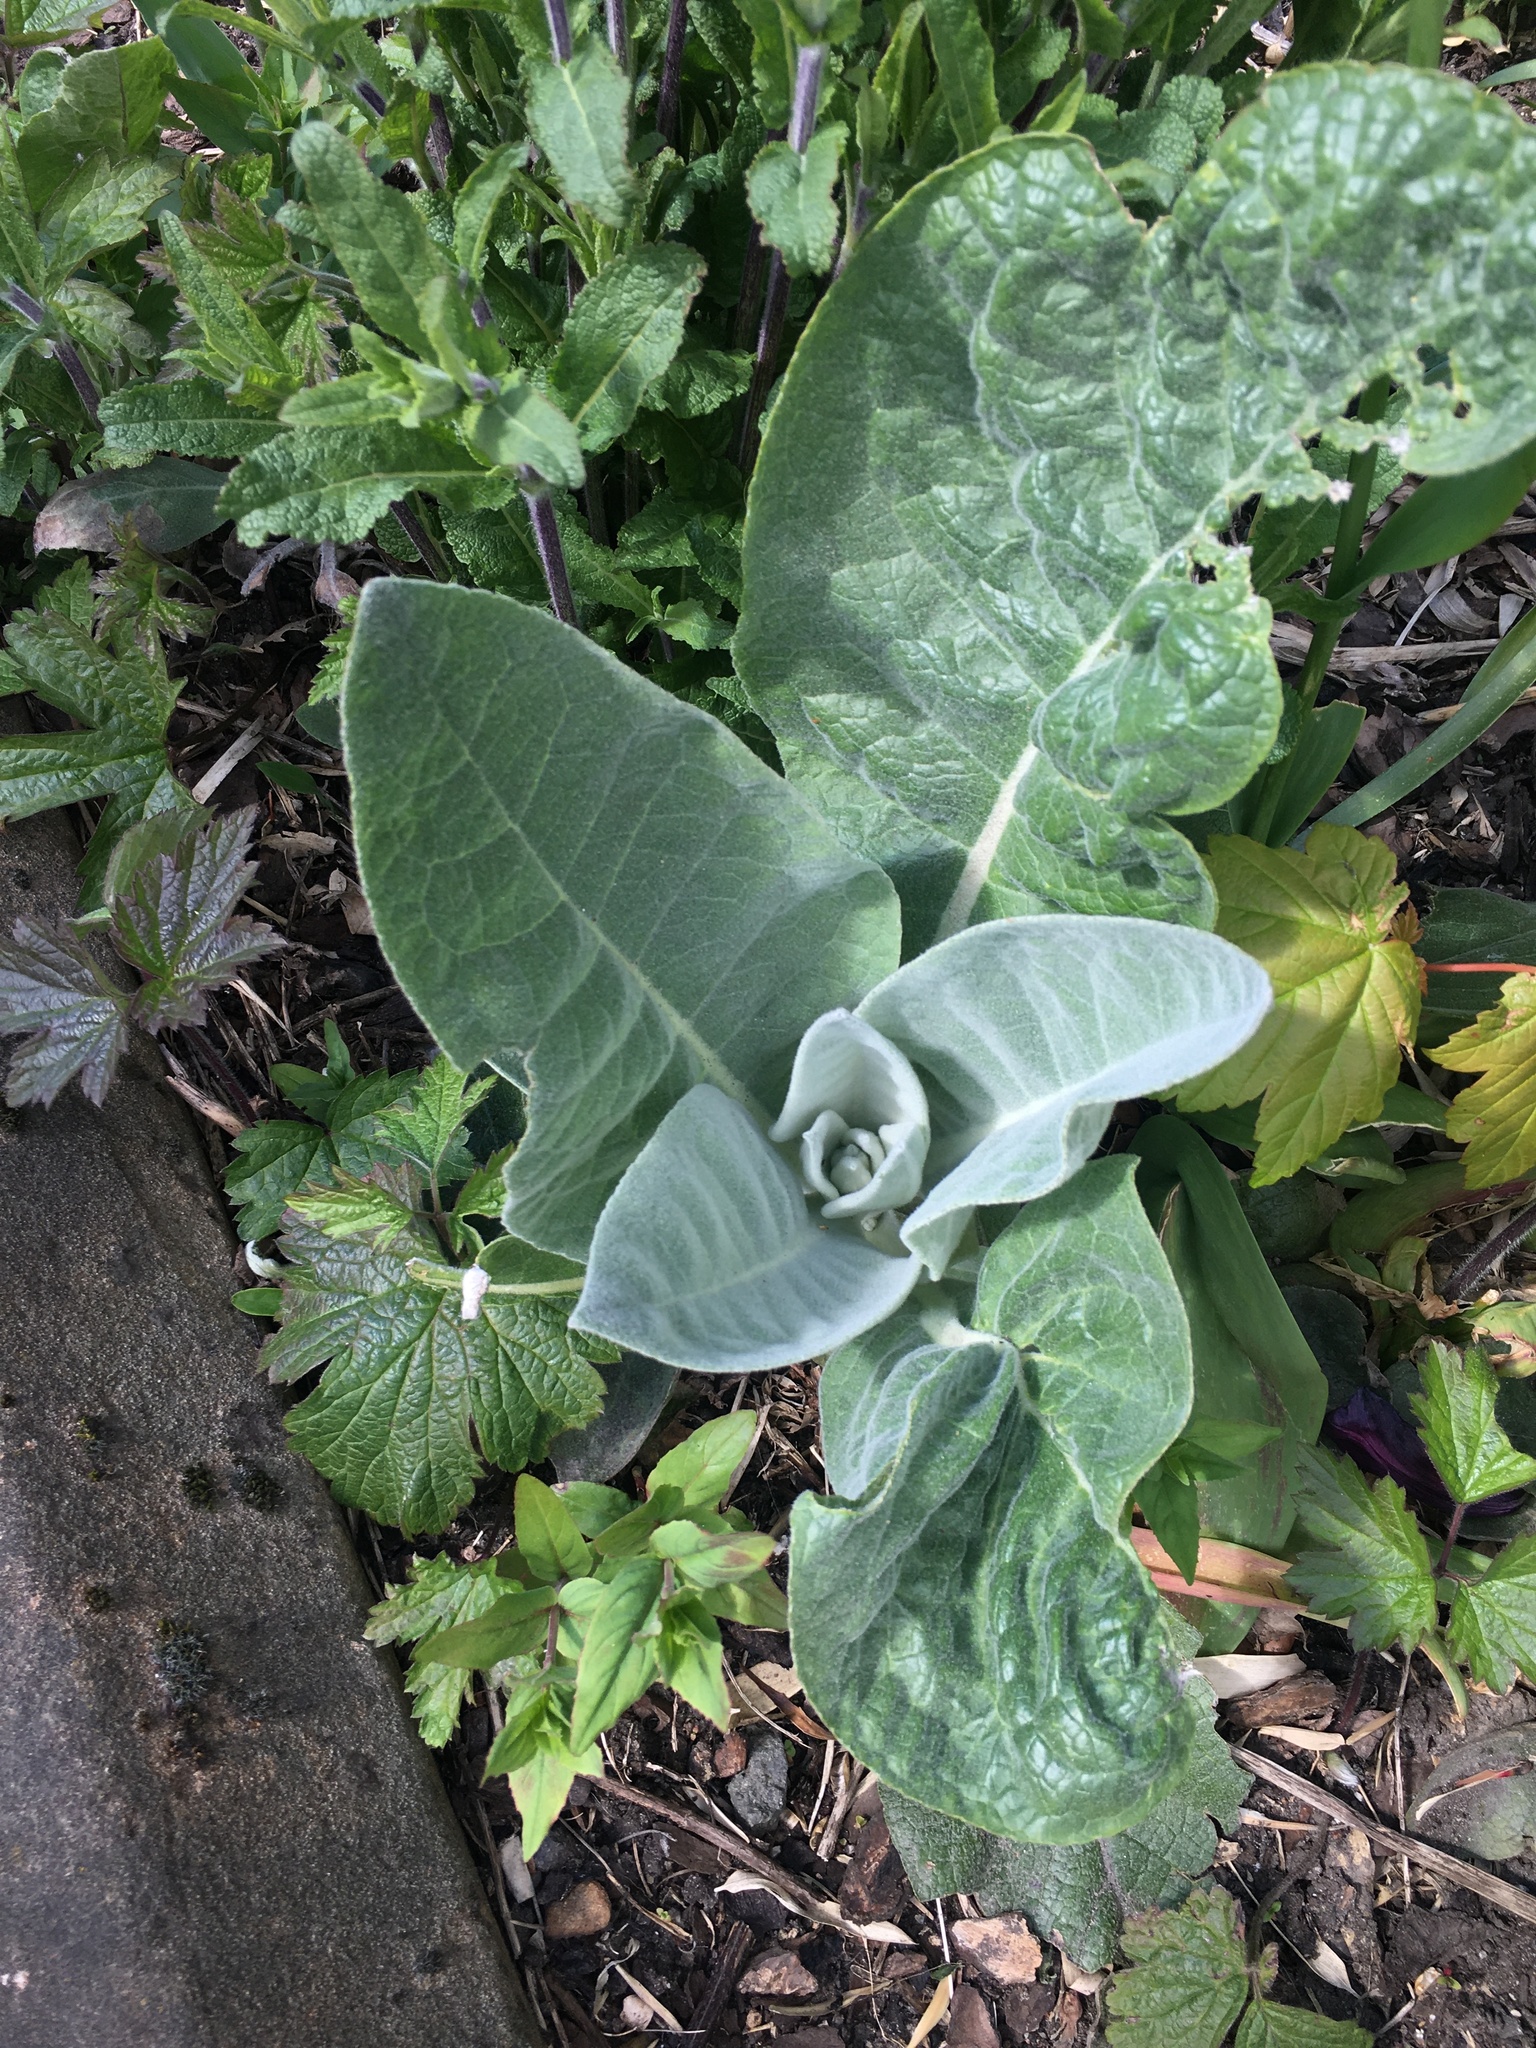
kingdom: Plantae
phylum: Tracheophyta
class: Magnoliopsida
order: Lamiales
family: Scrophulariaceae
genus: Verbascum
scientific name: Verbascum thapsus
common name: Common mullein
